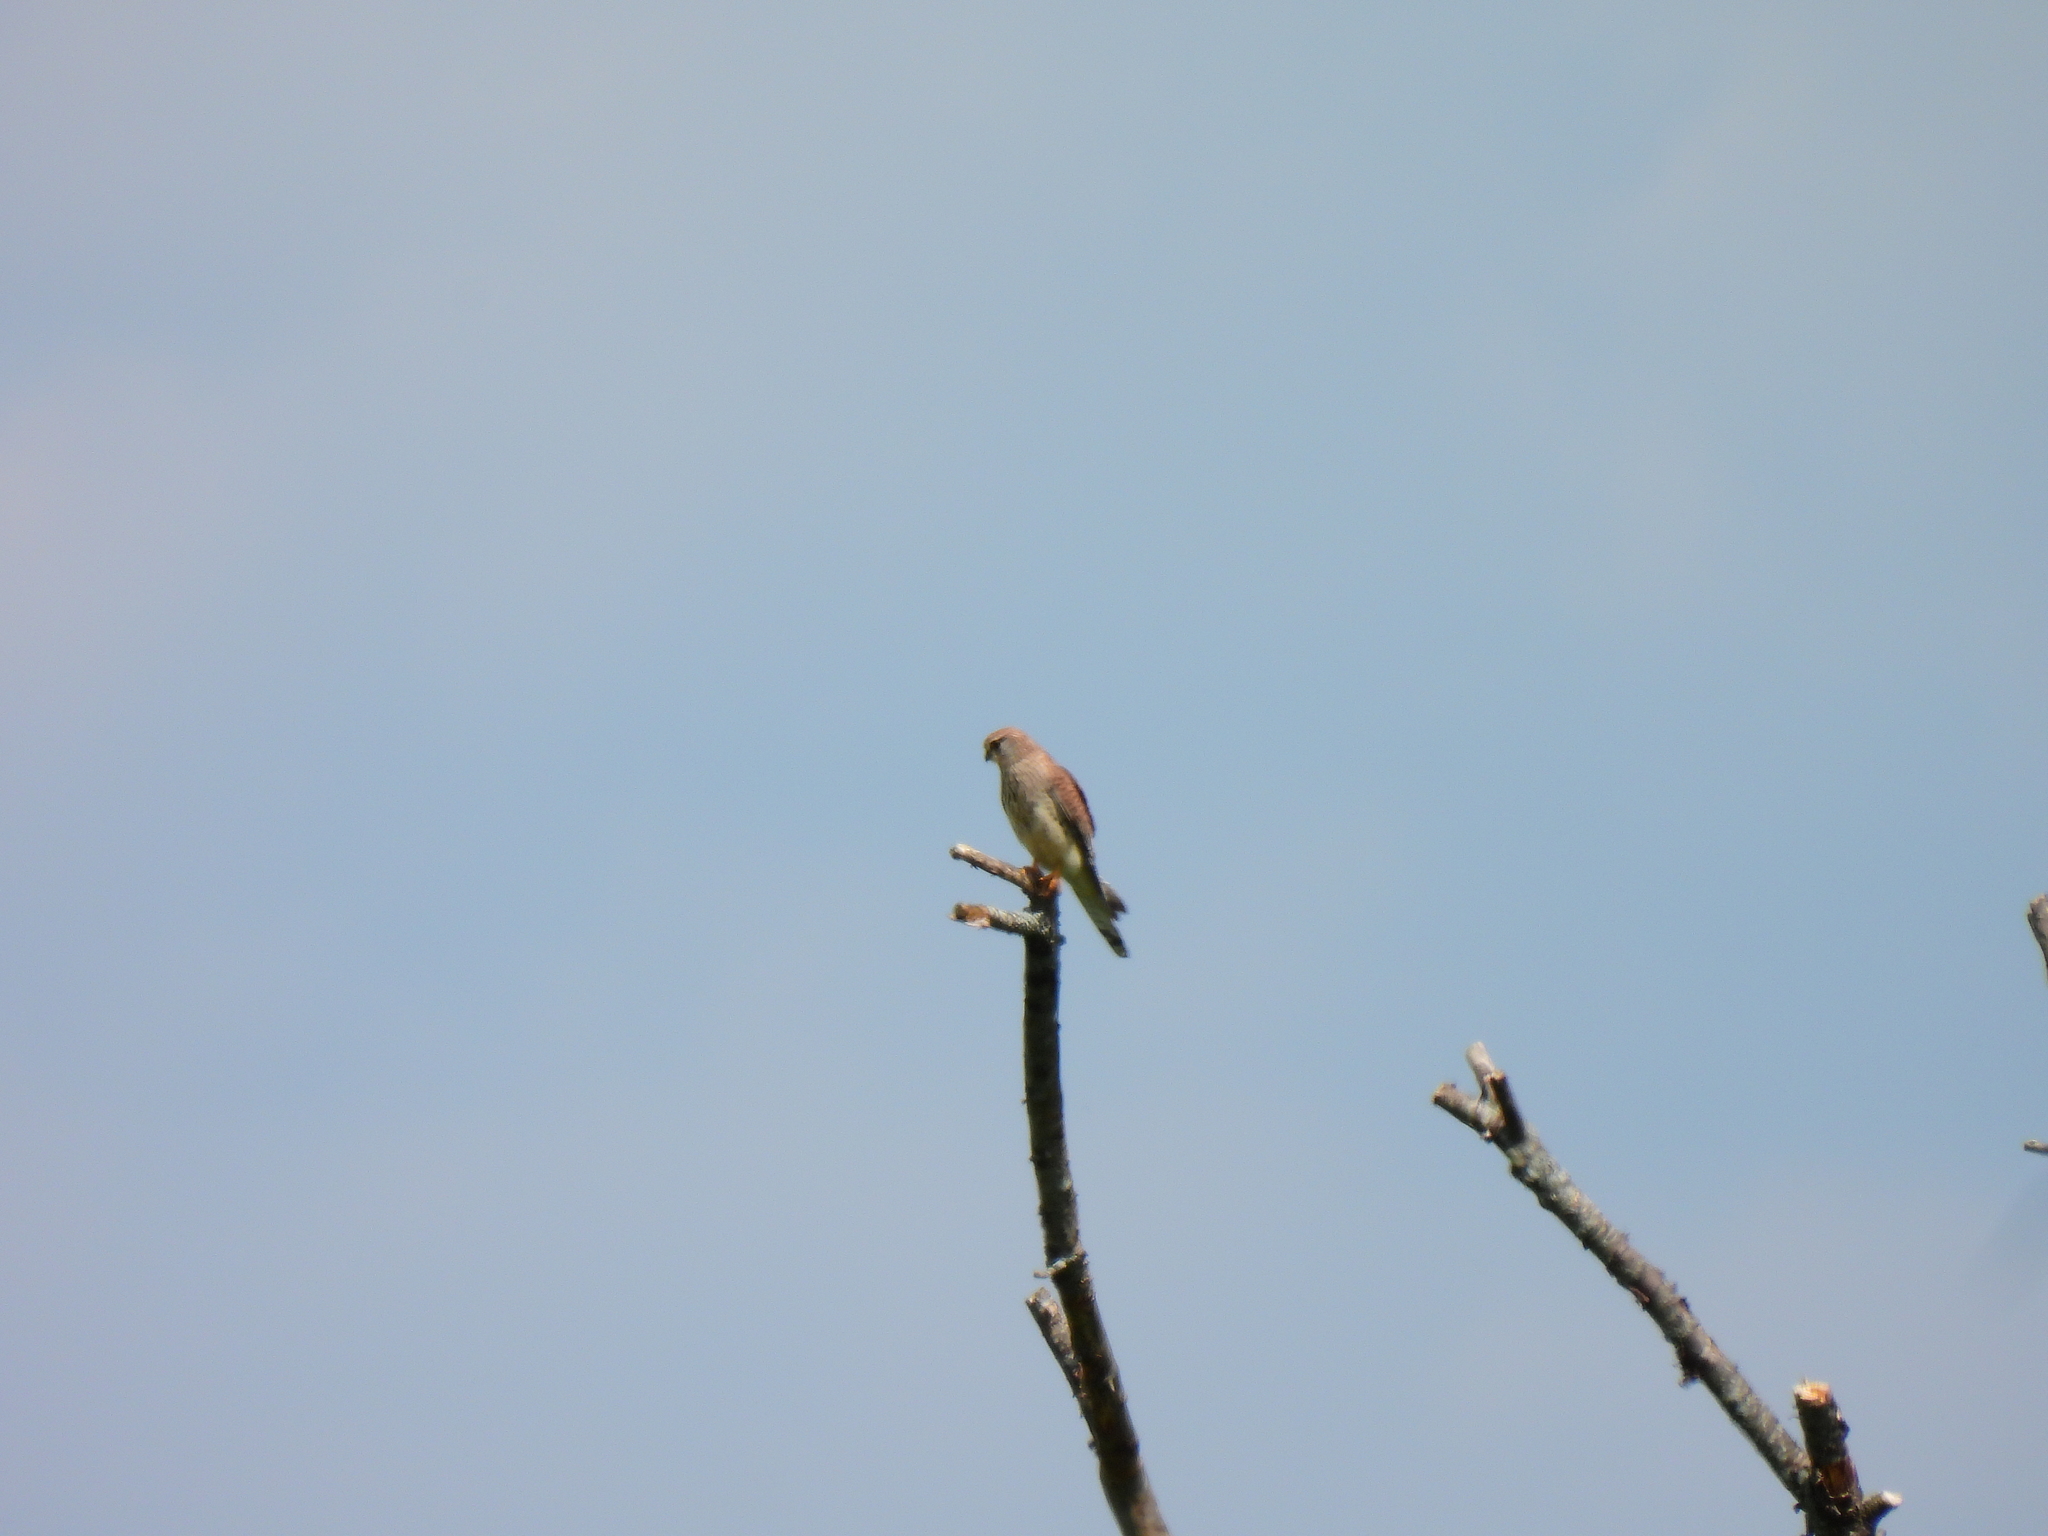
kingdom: Animalia
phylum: Chordata
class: Aves
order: Falconiformes
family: Falconidae
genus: Falco
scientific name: Falco tinnunculus
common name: Common kestrel
